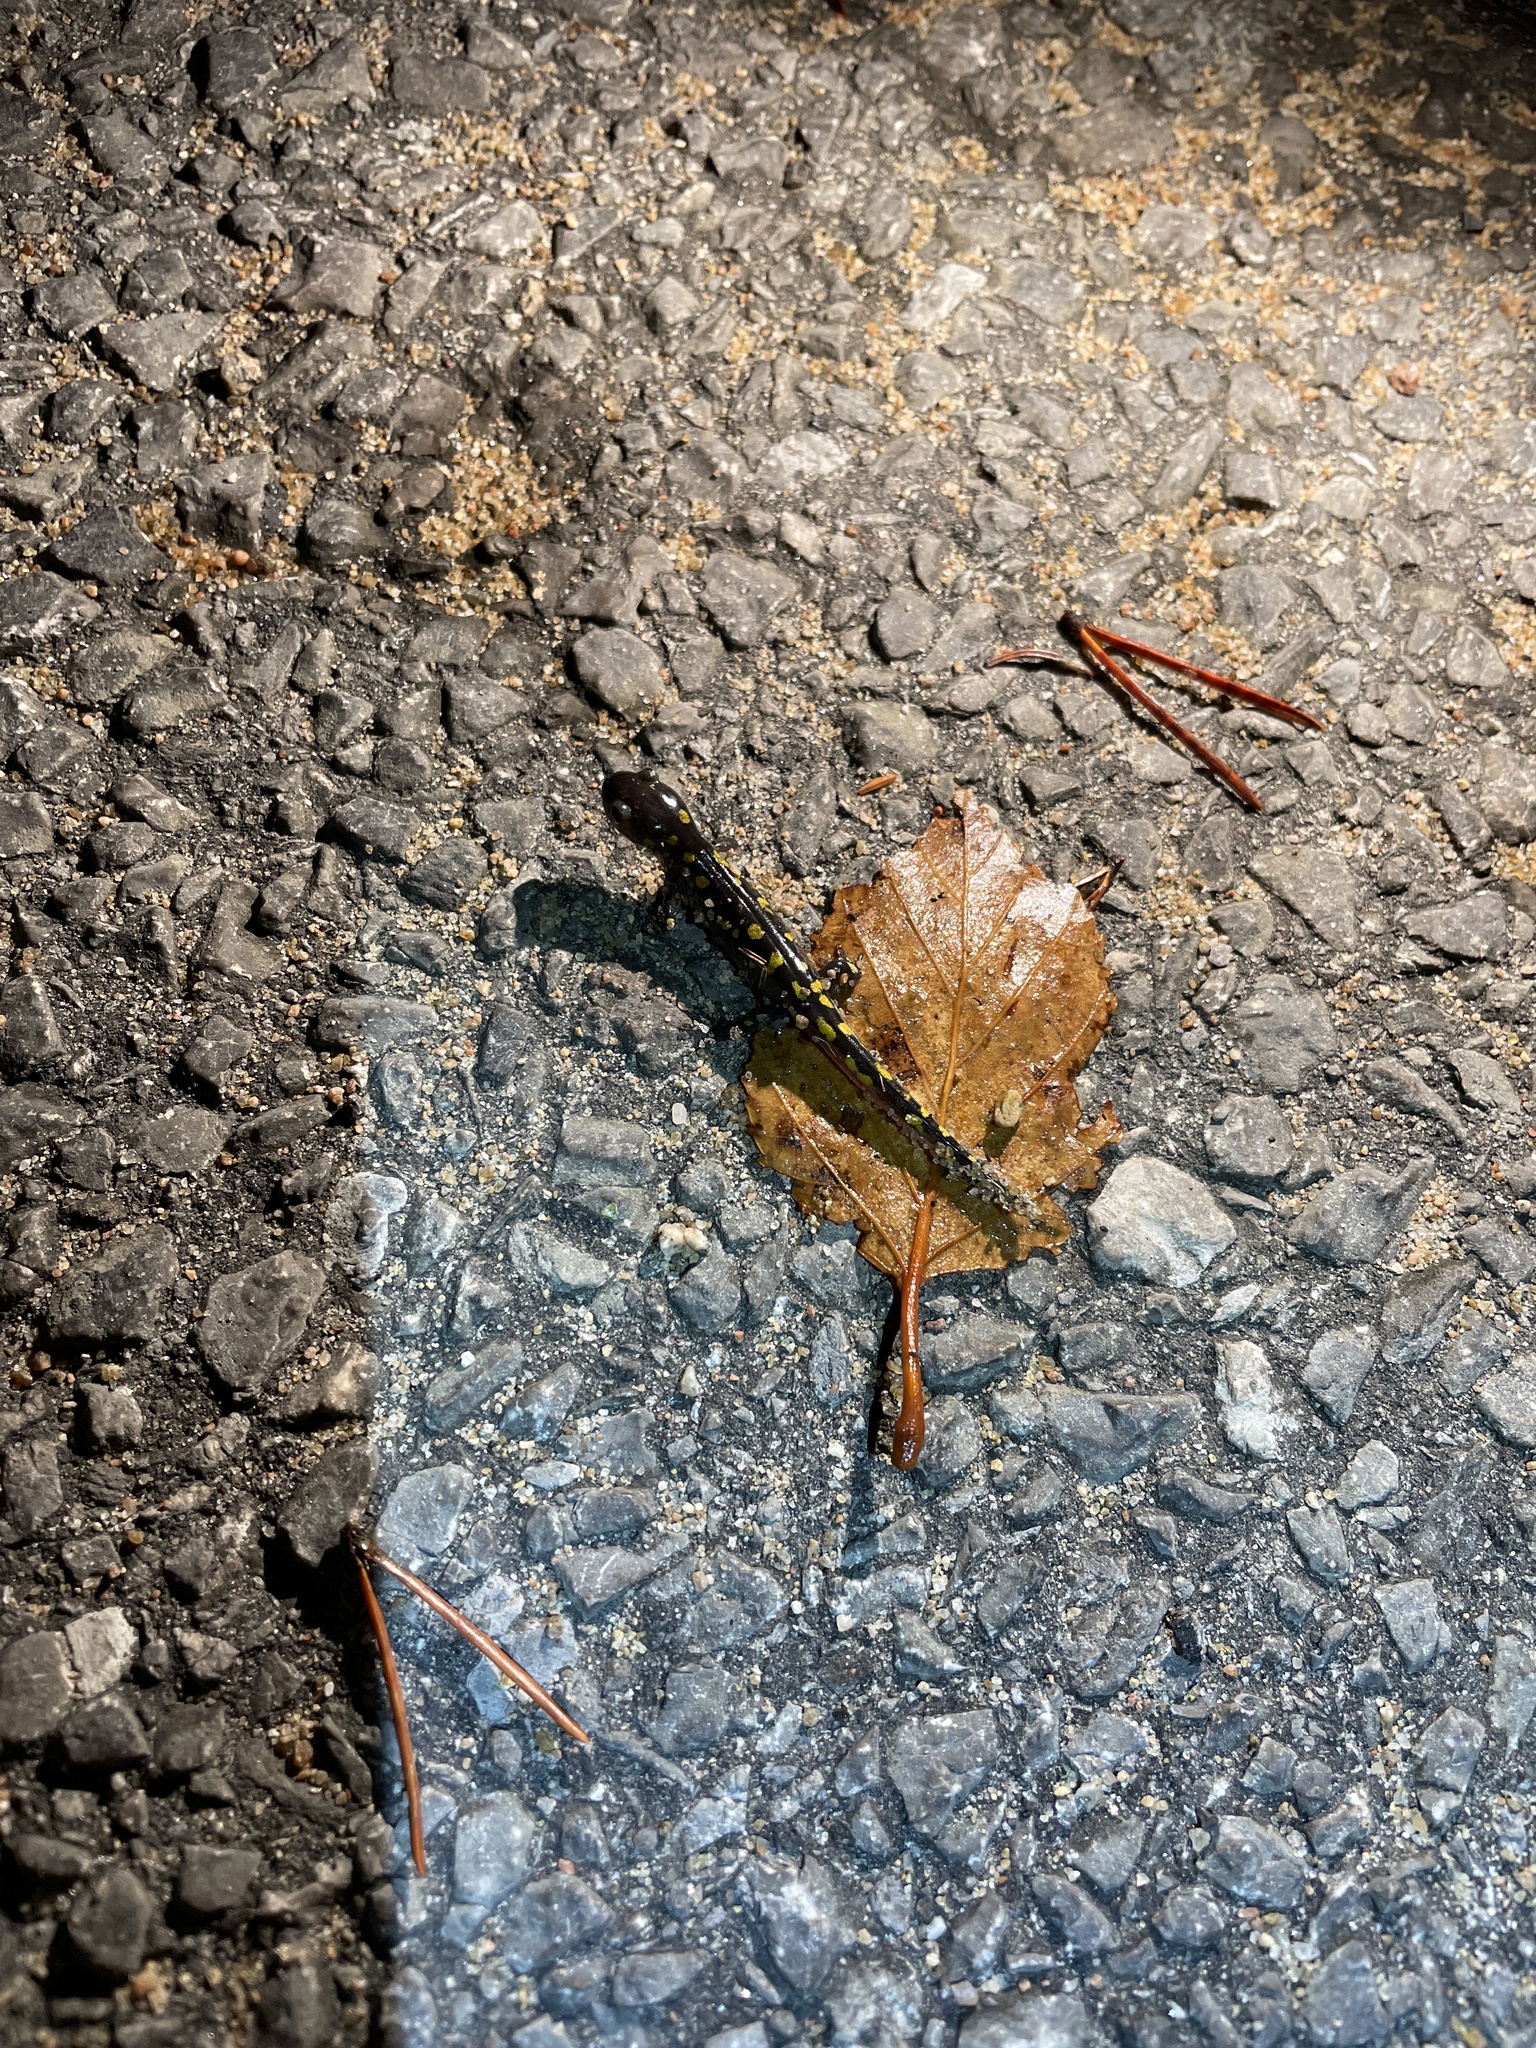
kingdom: Animalia
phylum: Chordata
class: Amphibia
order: Caudata
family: Ambystomatidae
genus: Ambystoma
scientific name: Ambystoma maculatum
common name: Spotted salamander
